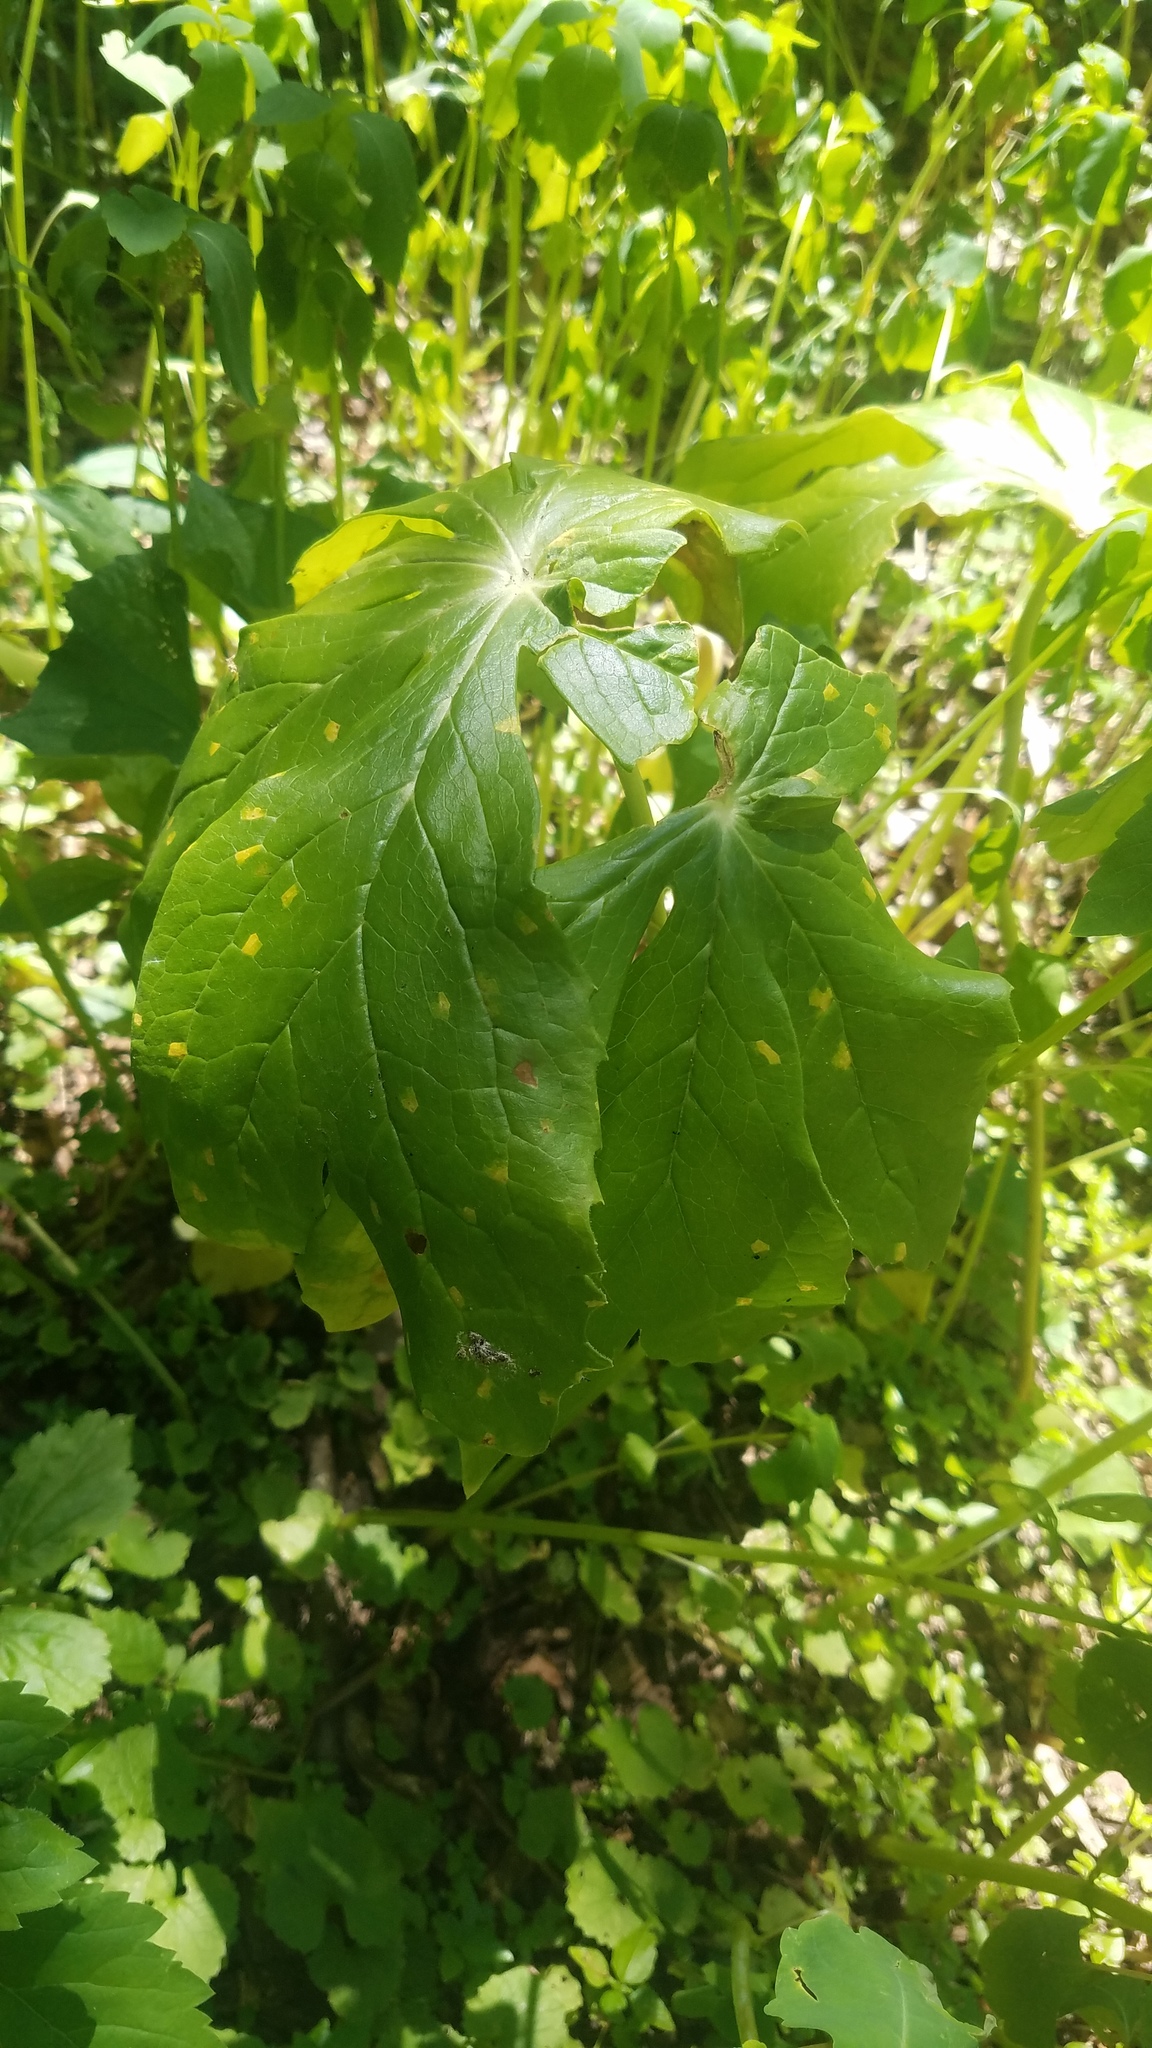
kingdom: Plantae
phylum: Tracheophyta
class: Magnoliopsida
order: Ranunculales
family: Berberidaceae
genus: Podophyllum
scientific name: Podophyllum peltatum
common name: Wild mandrake
